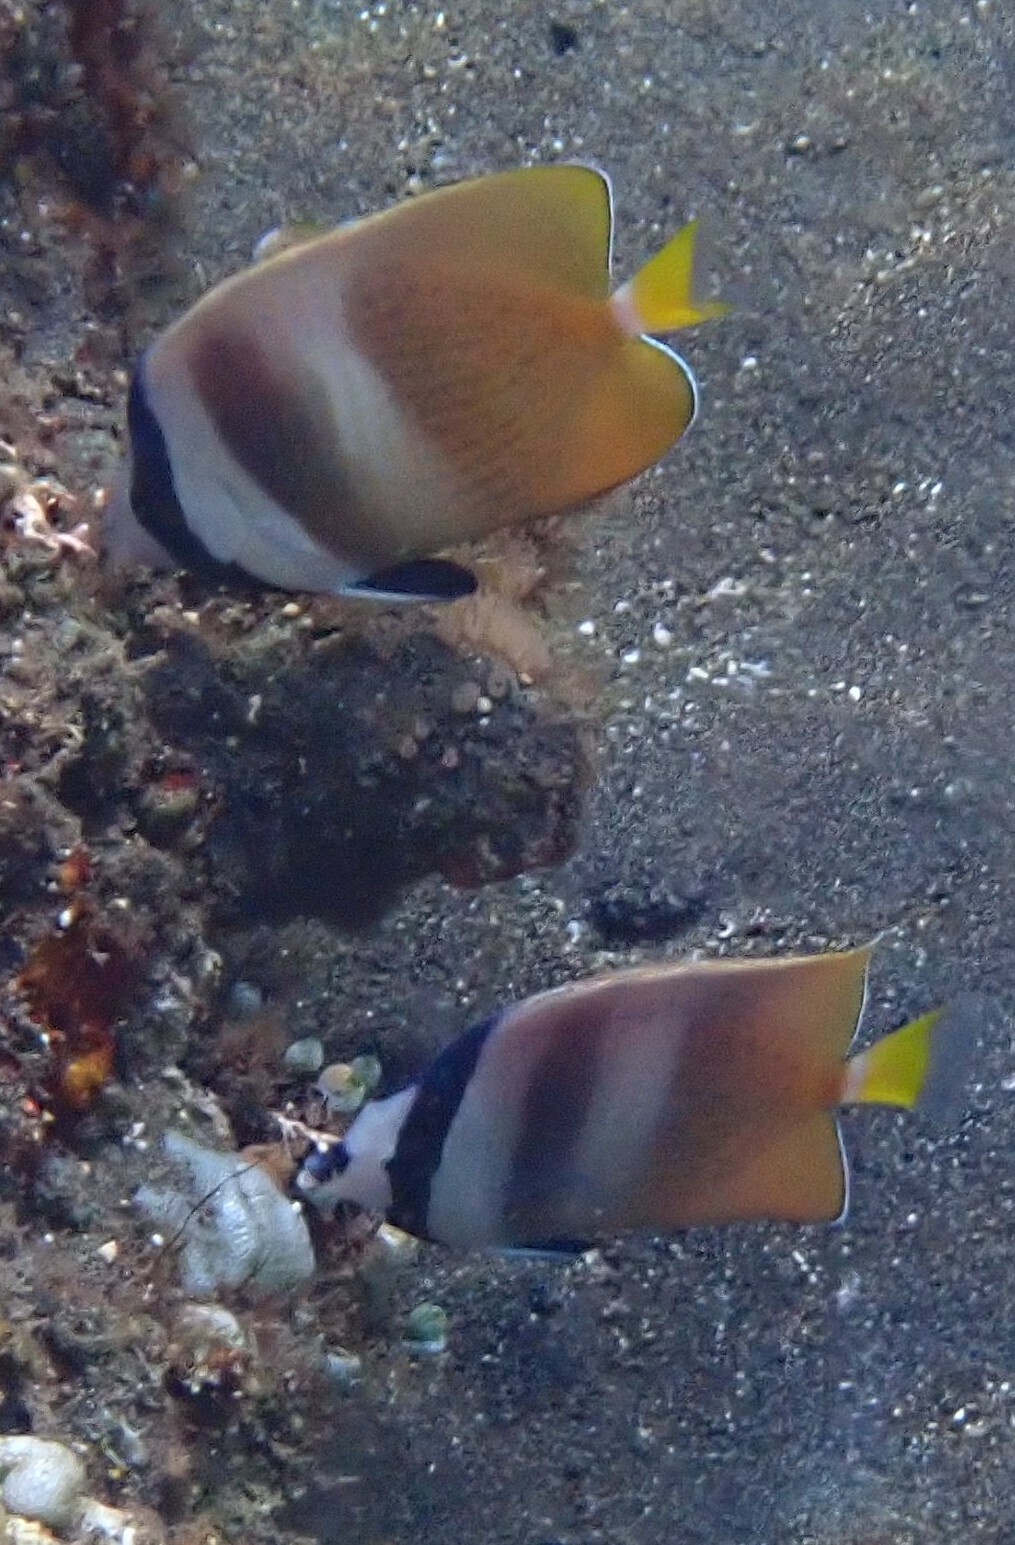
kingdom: Animalia
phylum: Chordata
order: Perciformes
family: Chaetodontidae
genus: Chaetodon
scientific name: Chaetodon kleinii
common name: Klein's butterflyfish
